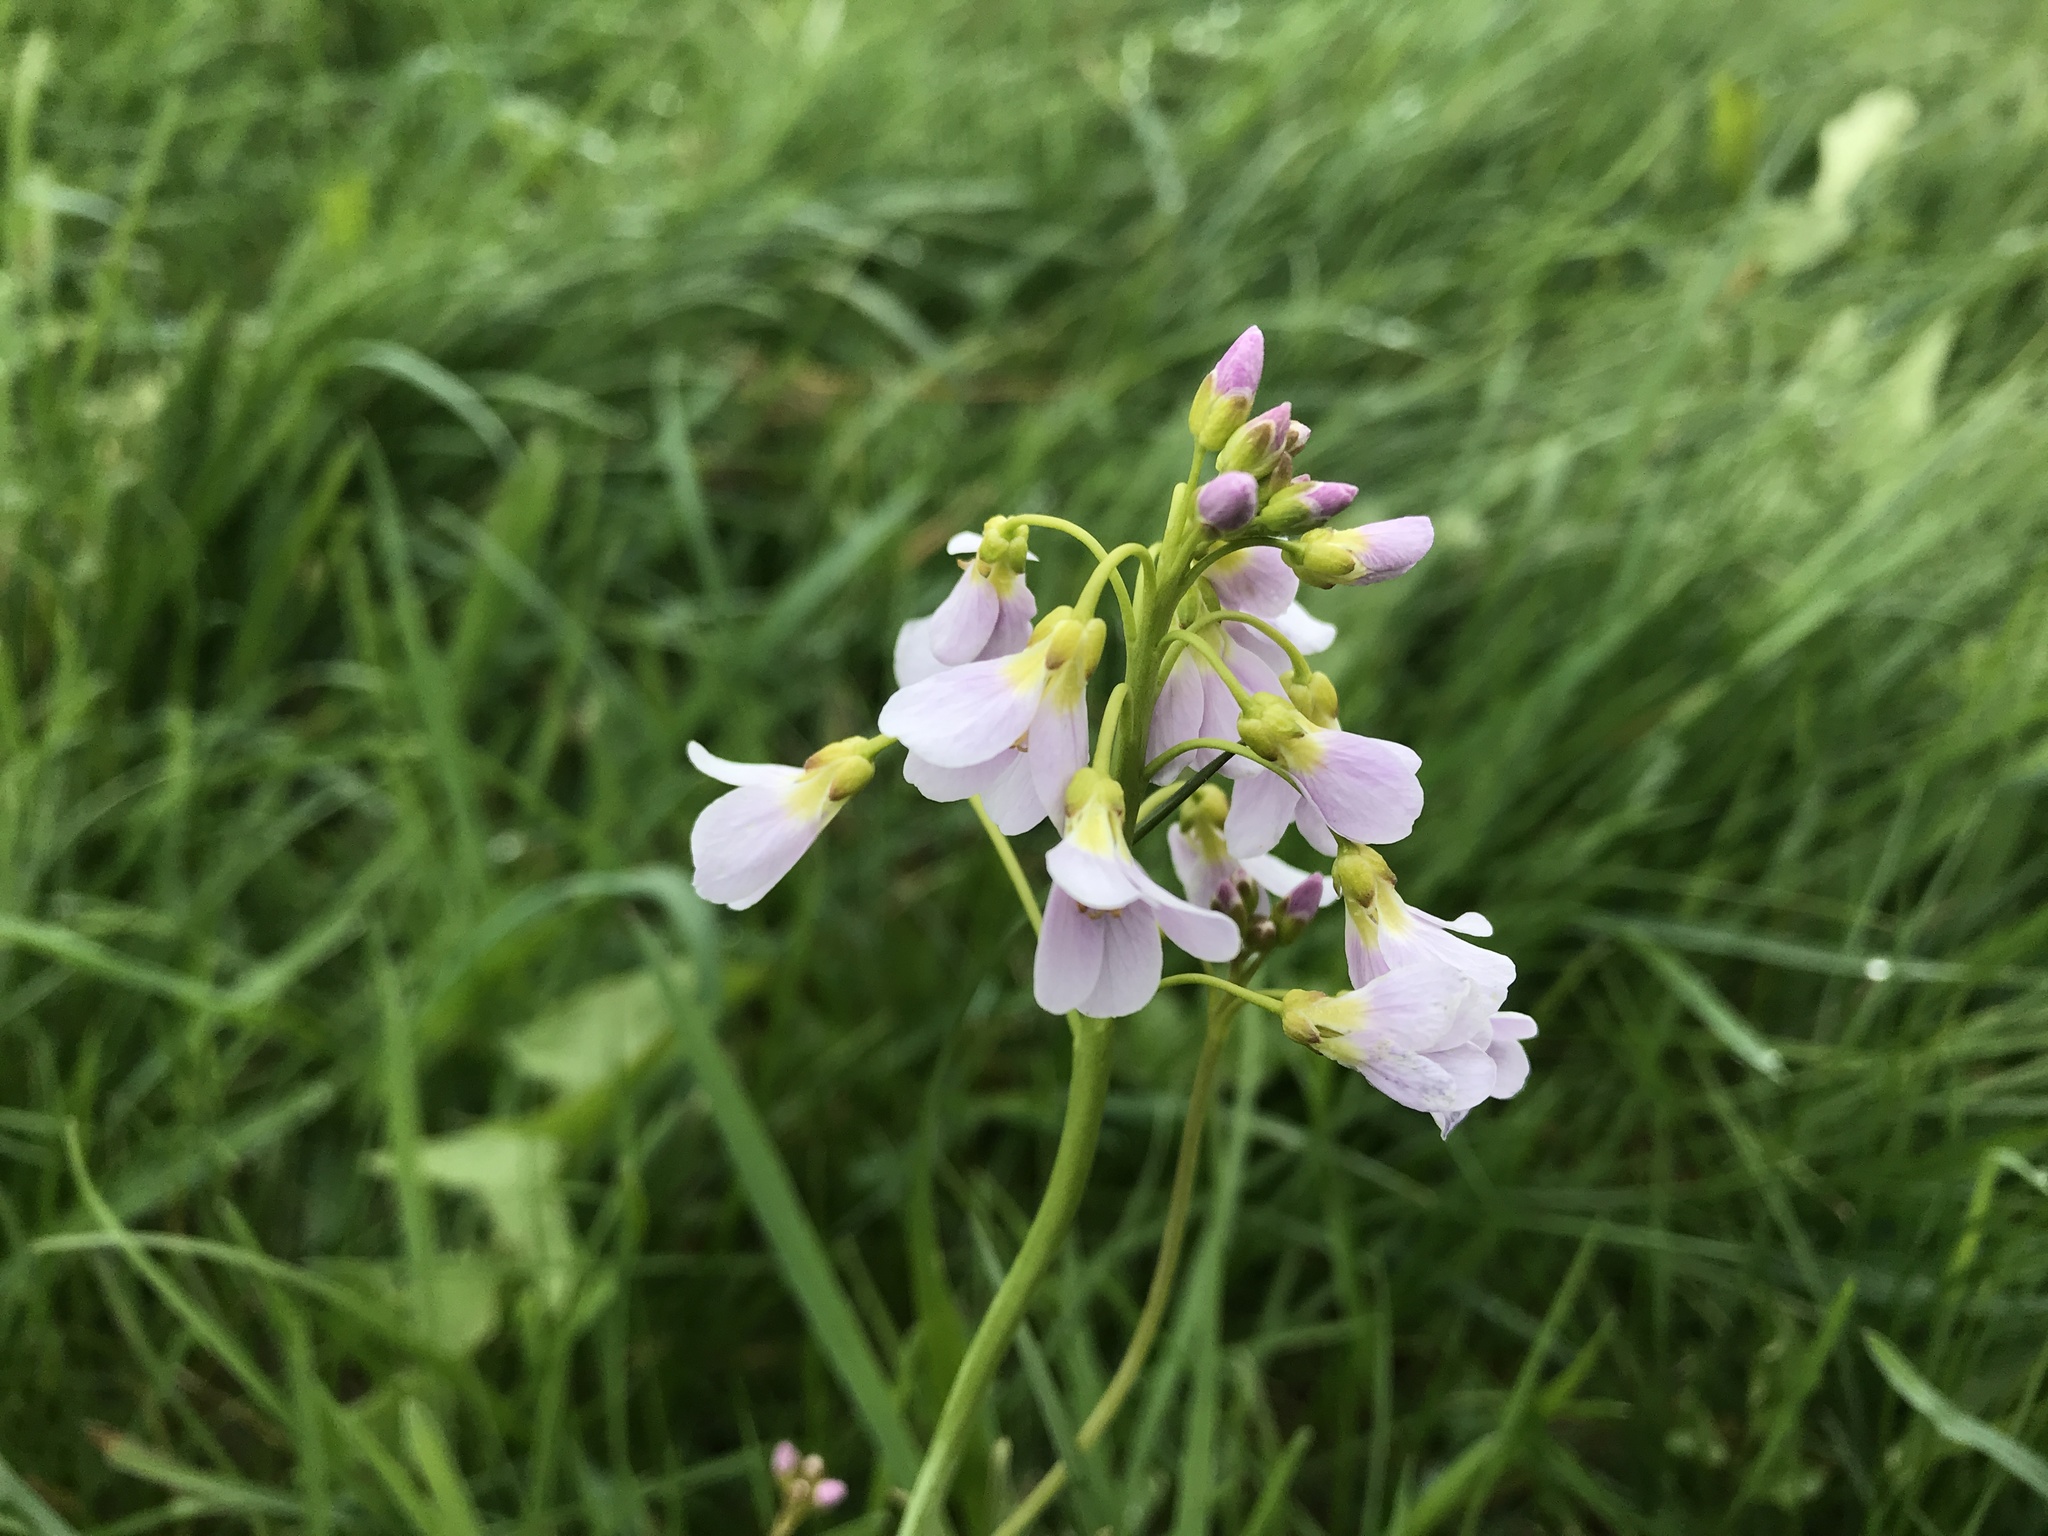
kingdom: Plantae
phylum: Tracheophyta
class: Magnoliopsida
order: Brassicales
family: Brassicaceae
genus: Cardamine
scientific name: Cardamine pratensis
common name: Cuckoo flower
